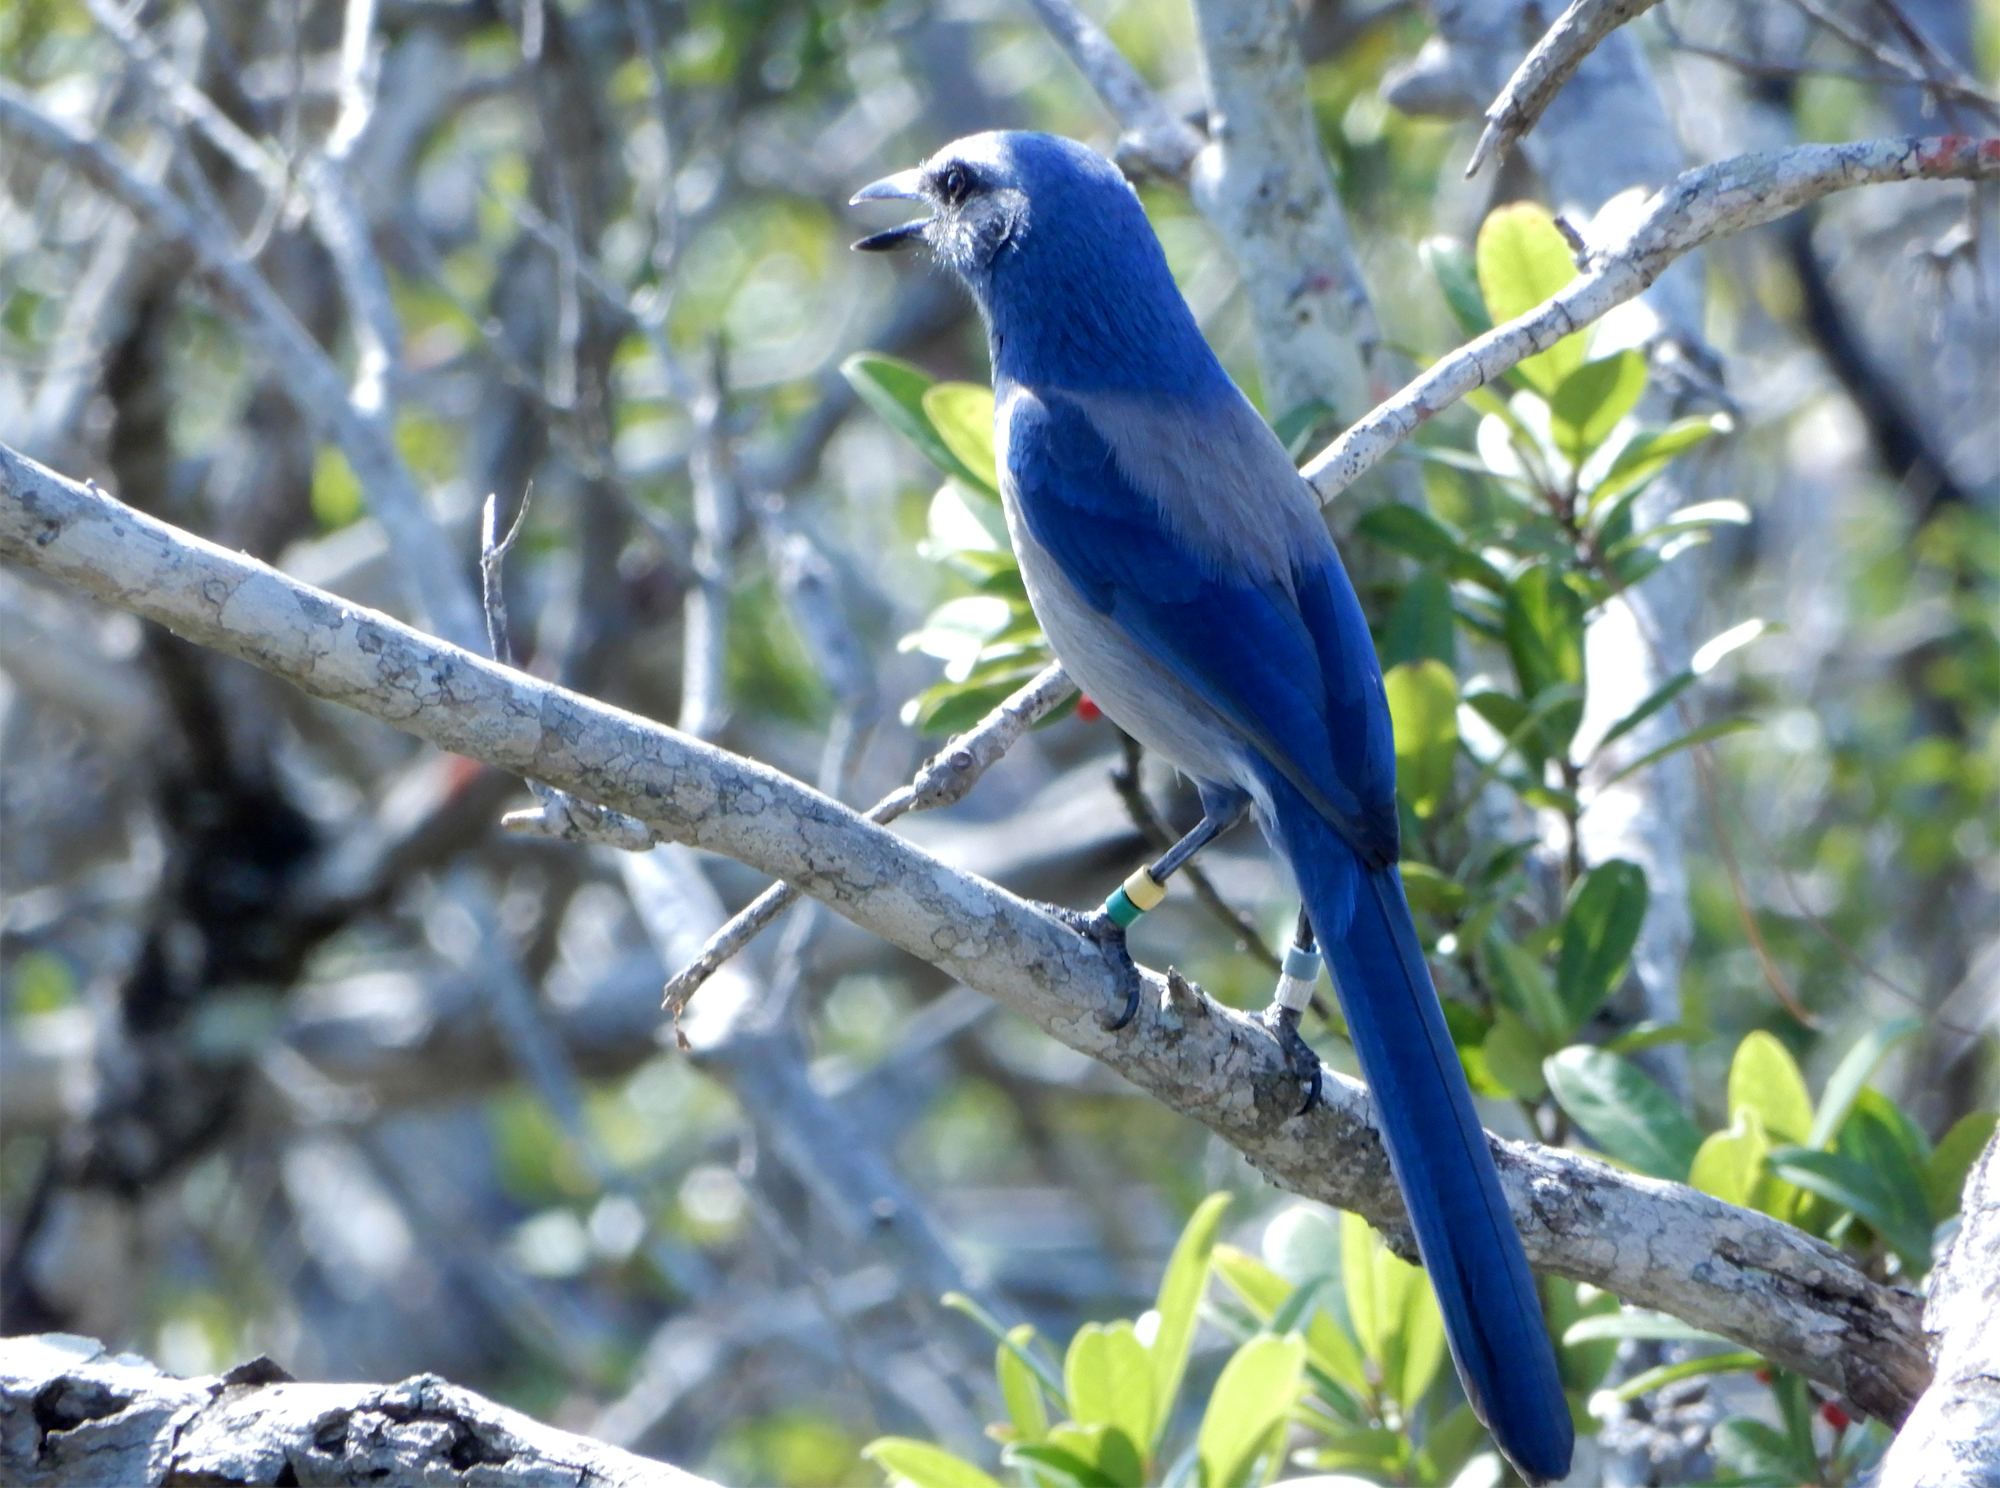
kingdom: Animalia
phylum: Chordata
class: Aves
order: Passeriformes
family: Corvidae
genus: Aphelocoma
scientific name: Aphelocoma coerulescens
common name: Florida scrub jay
